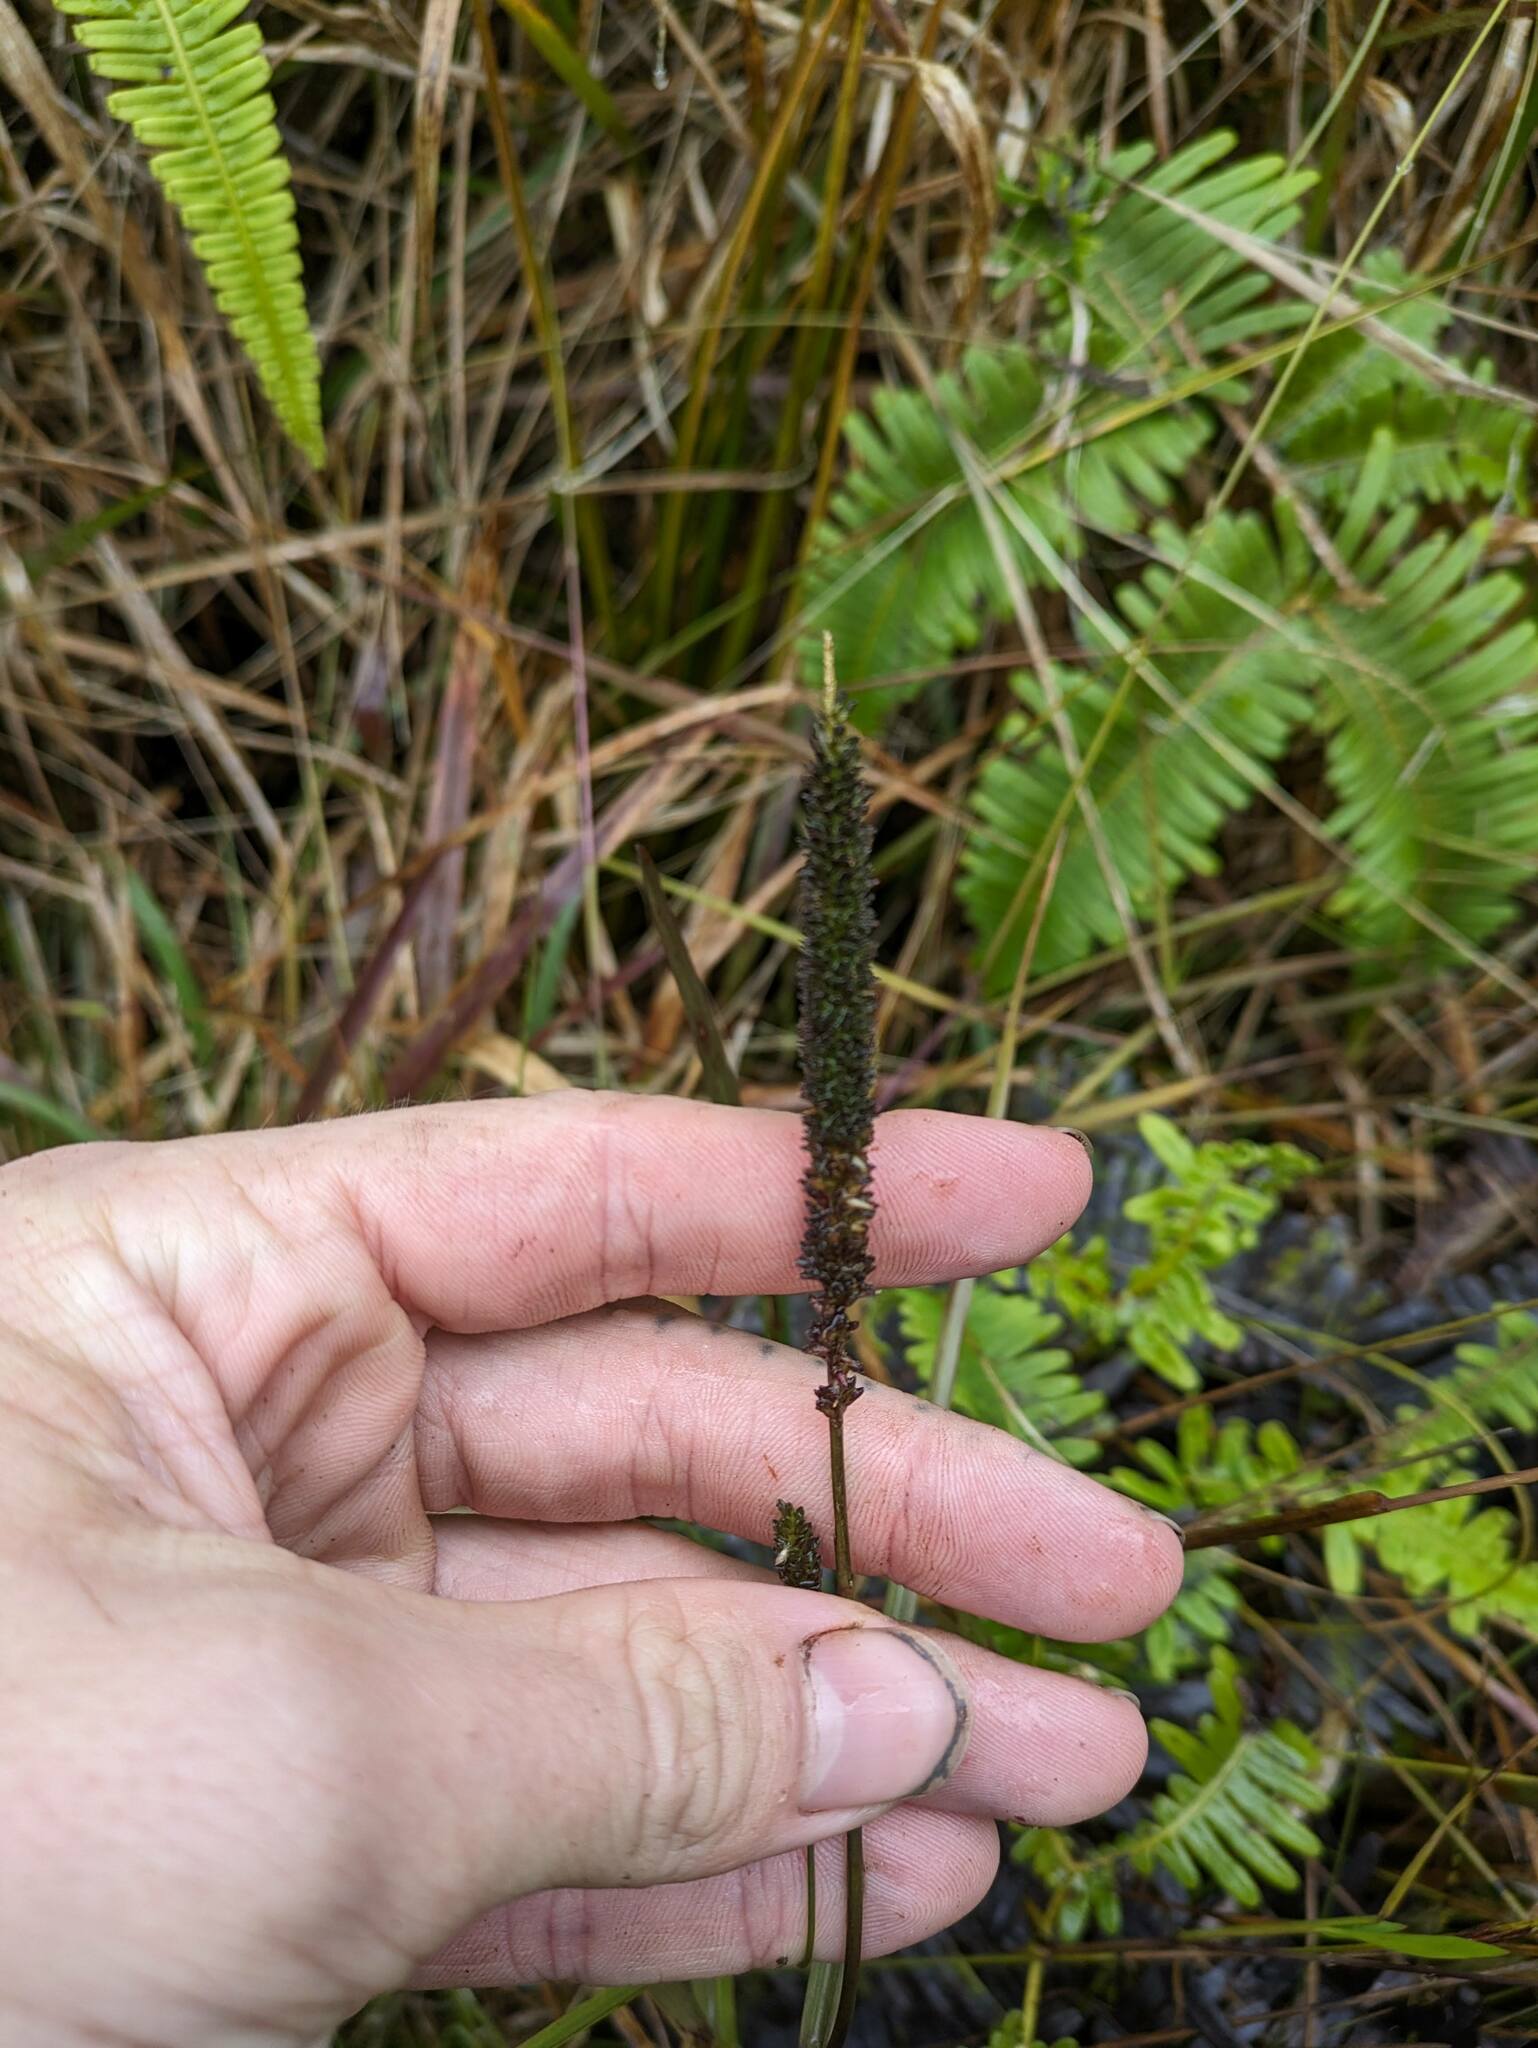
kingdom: Plantae
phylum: Tracheophyta
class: Liliopsida
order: Poales
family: Poaceae
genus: Sacciolepis
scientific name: Sacciolepis indica
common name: Glenwoodgrass
